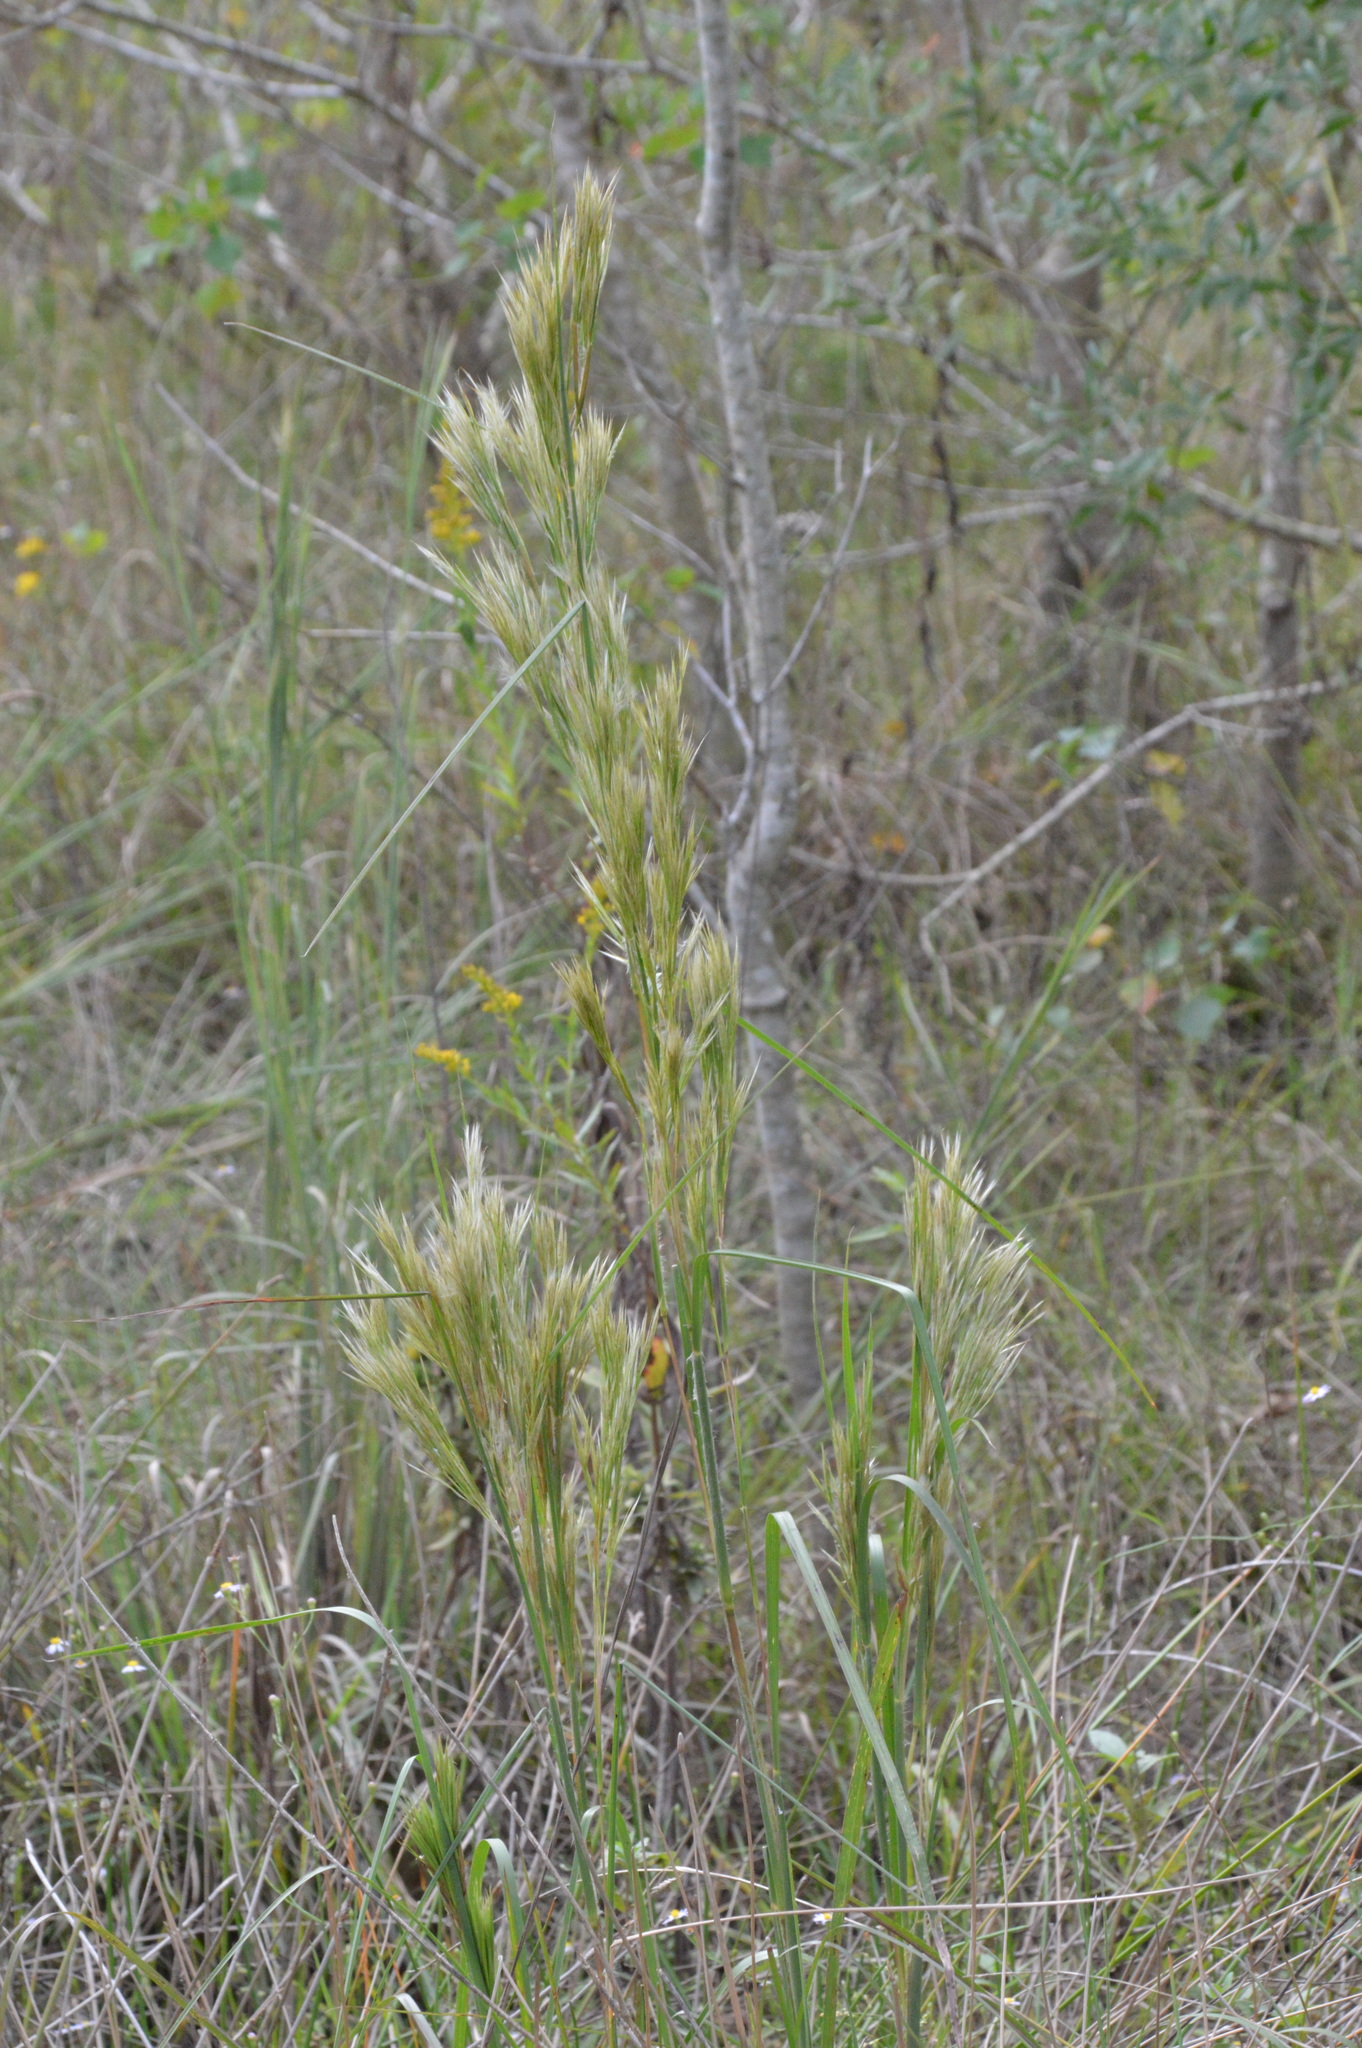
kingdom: Plantae
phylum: Tracheophyta
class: Liliopsida
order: Poales
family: Poaceae
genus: Andropogon
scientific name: Andropogon tenuispatheus
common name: Bushy bluestem
